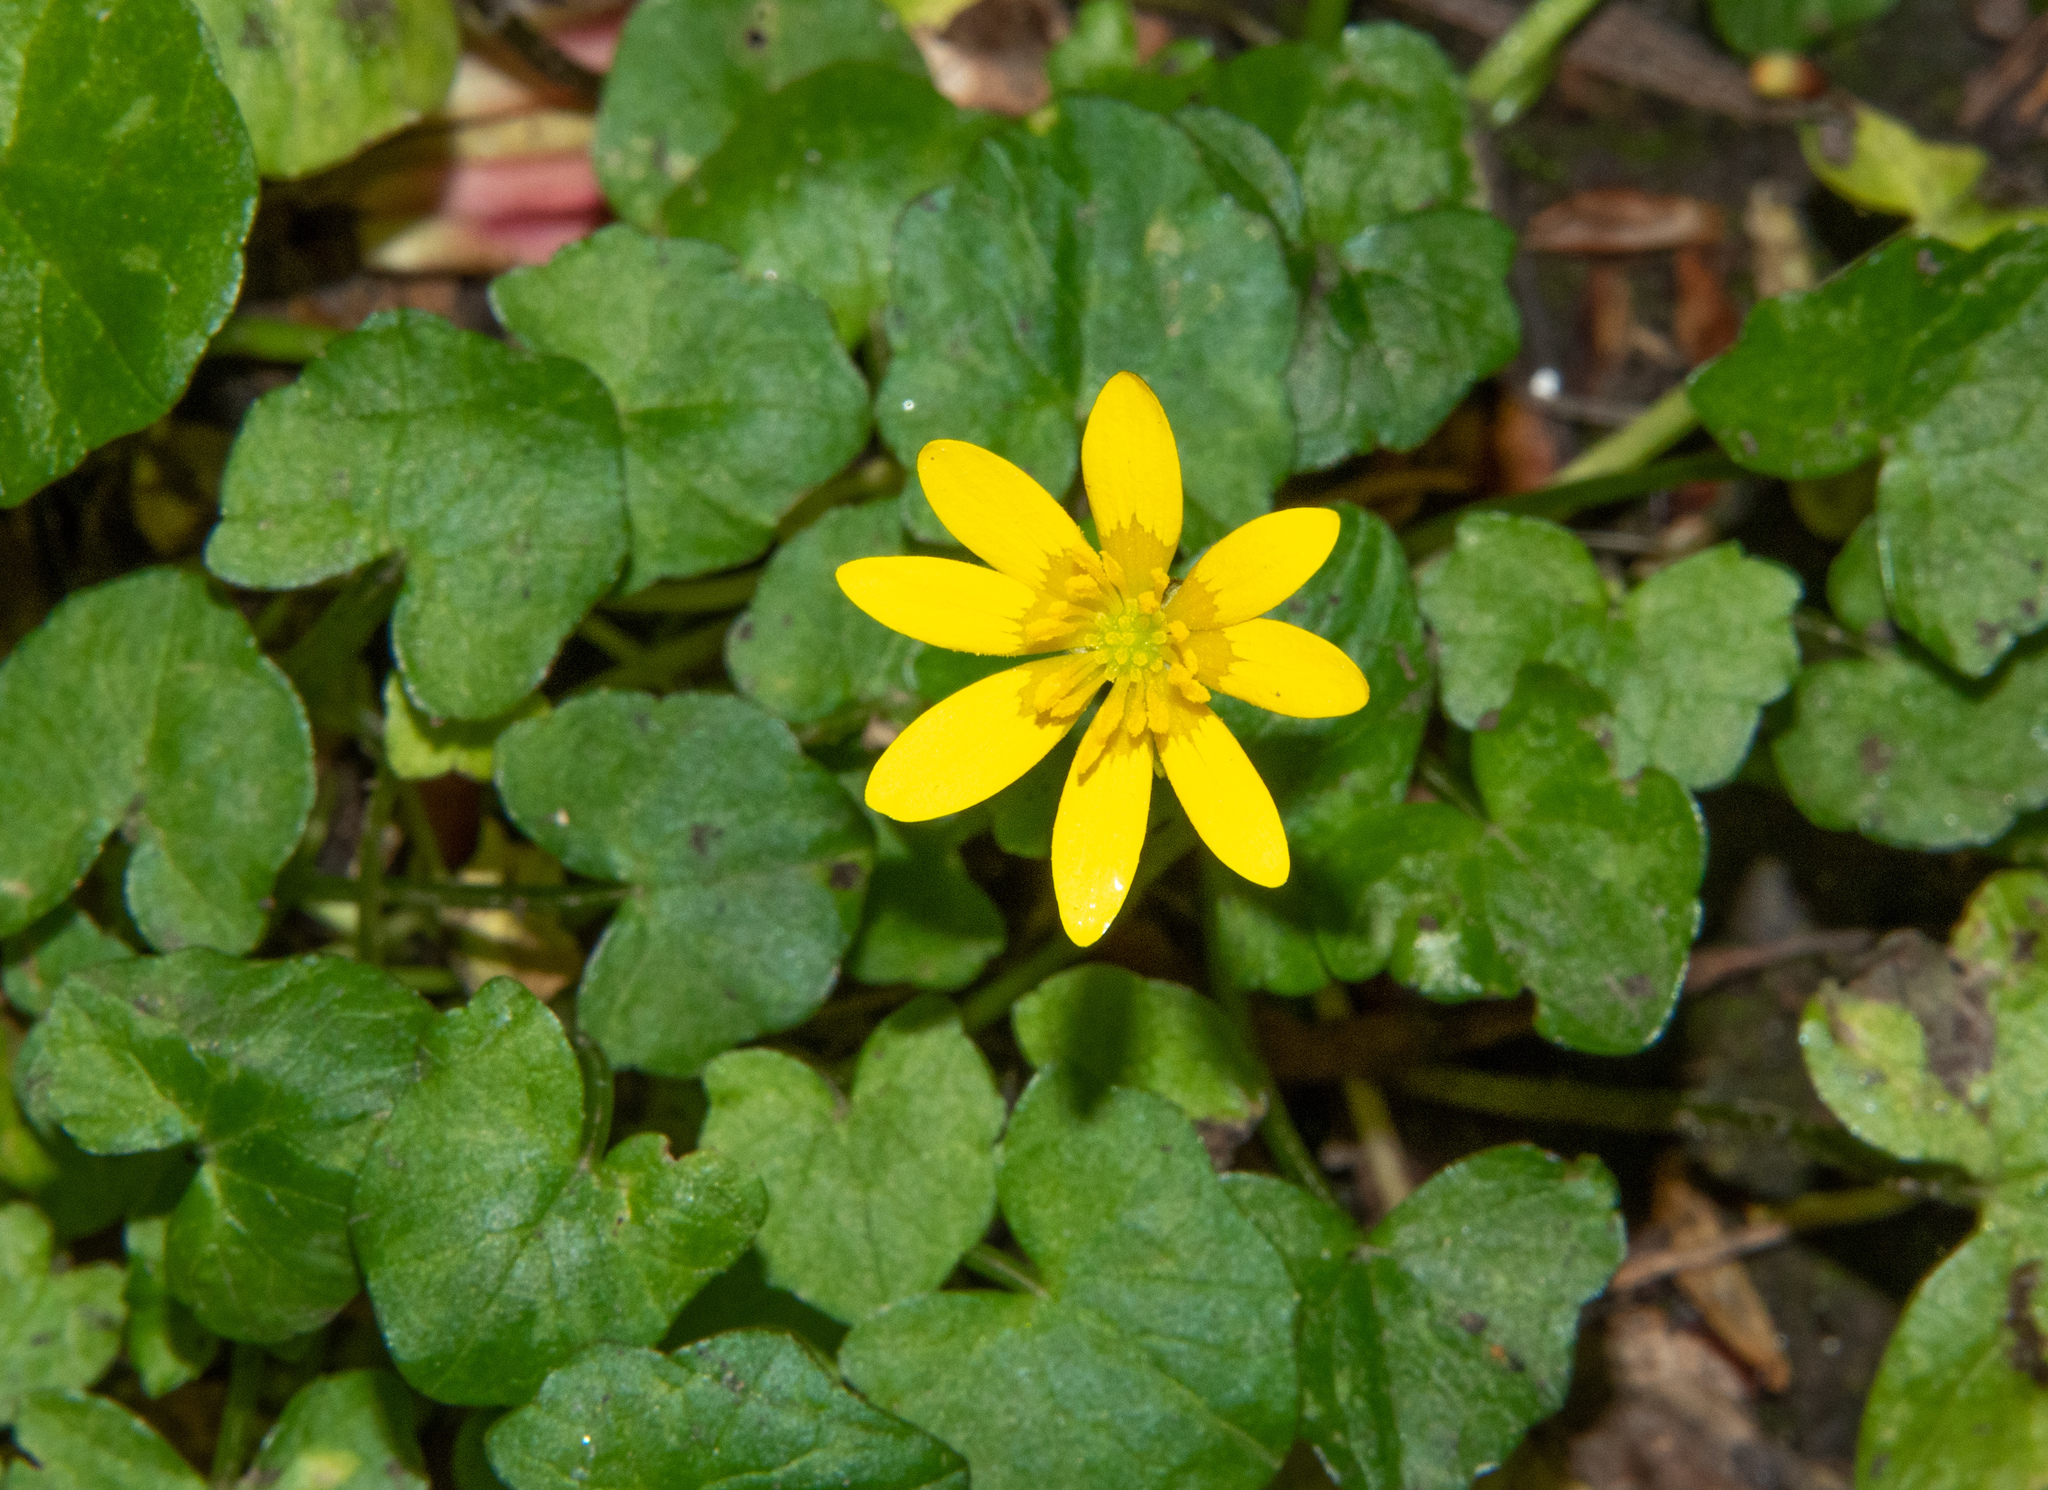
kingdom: Plantae
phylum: Tracheophyta
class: Magnoliopsida
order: Ranunculales
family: Ranunculaceae
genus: Ficaria
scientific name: Ficaria verna
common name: Lesser celandine
